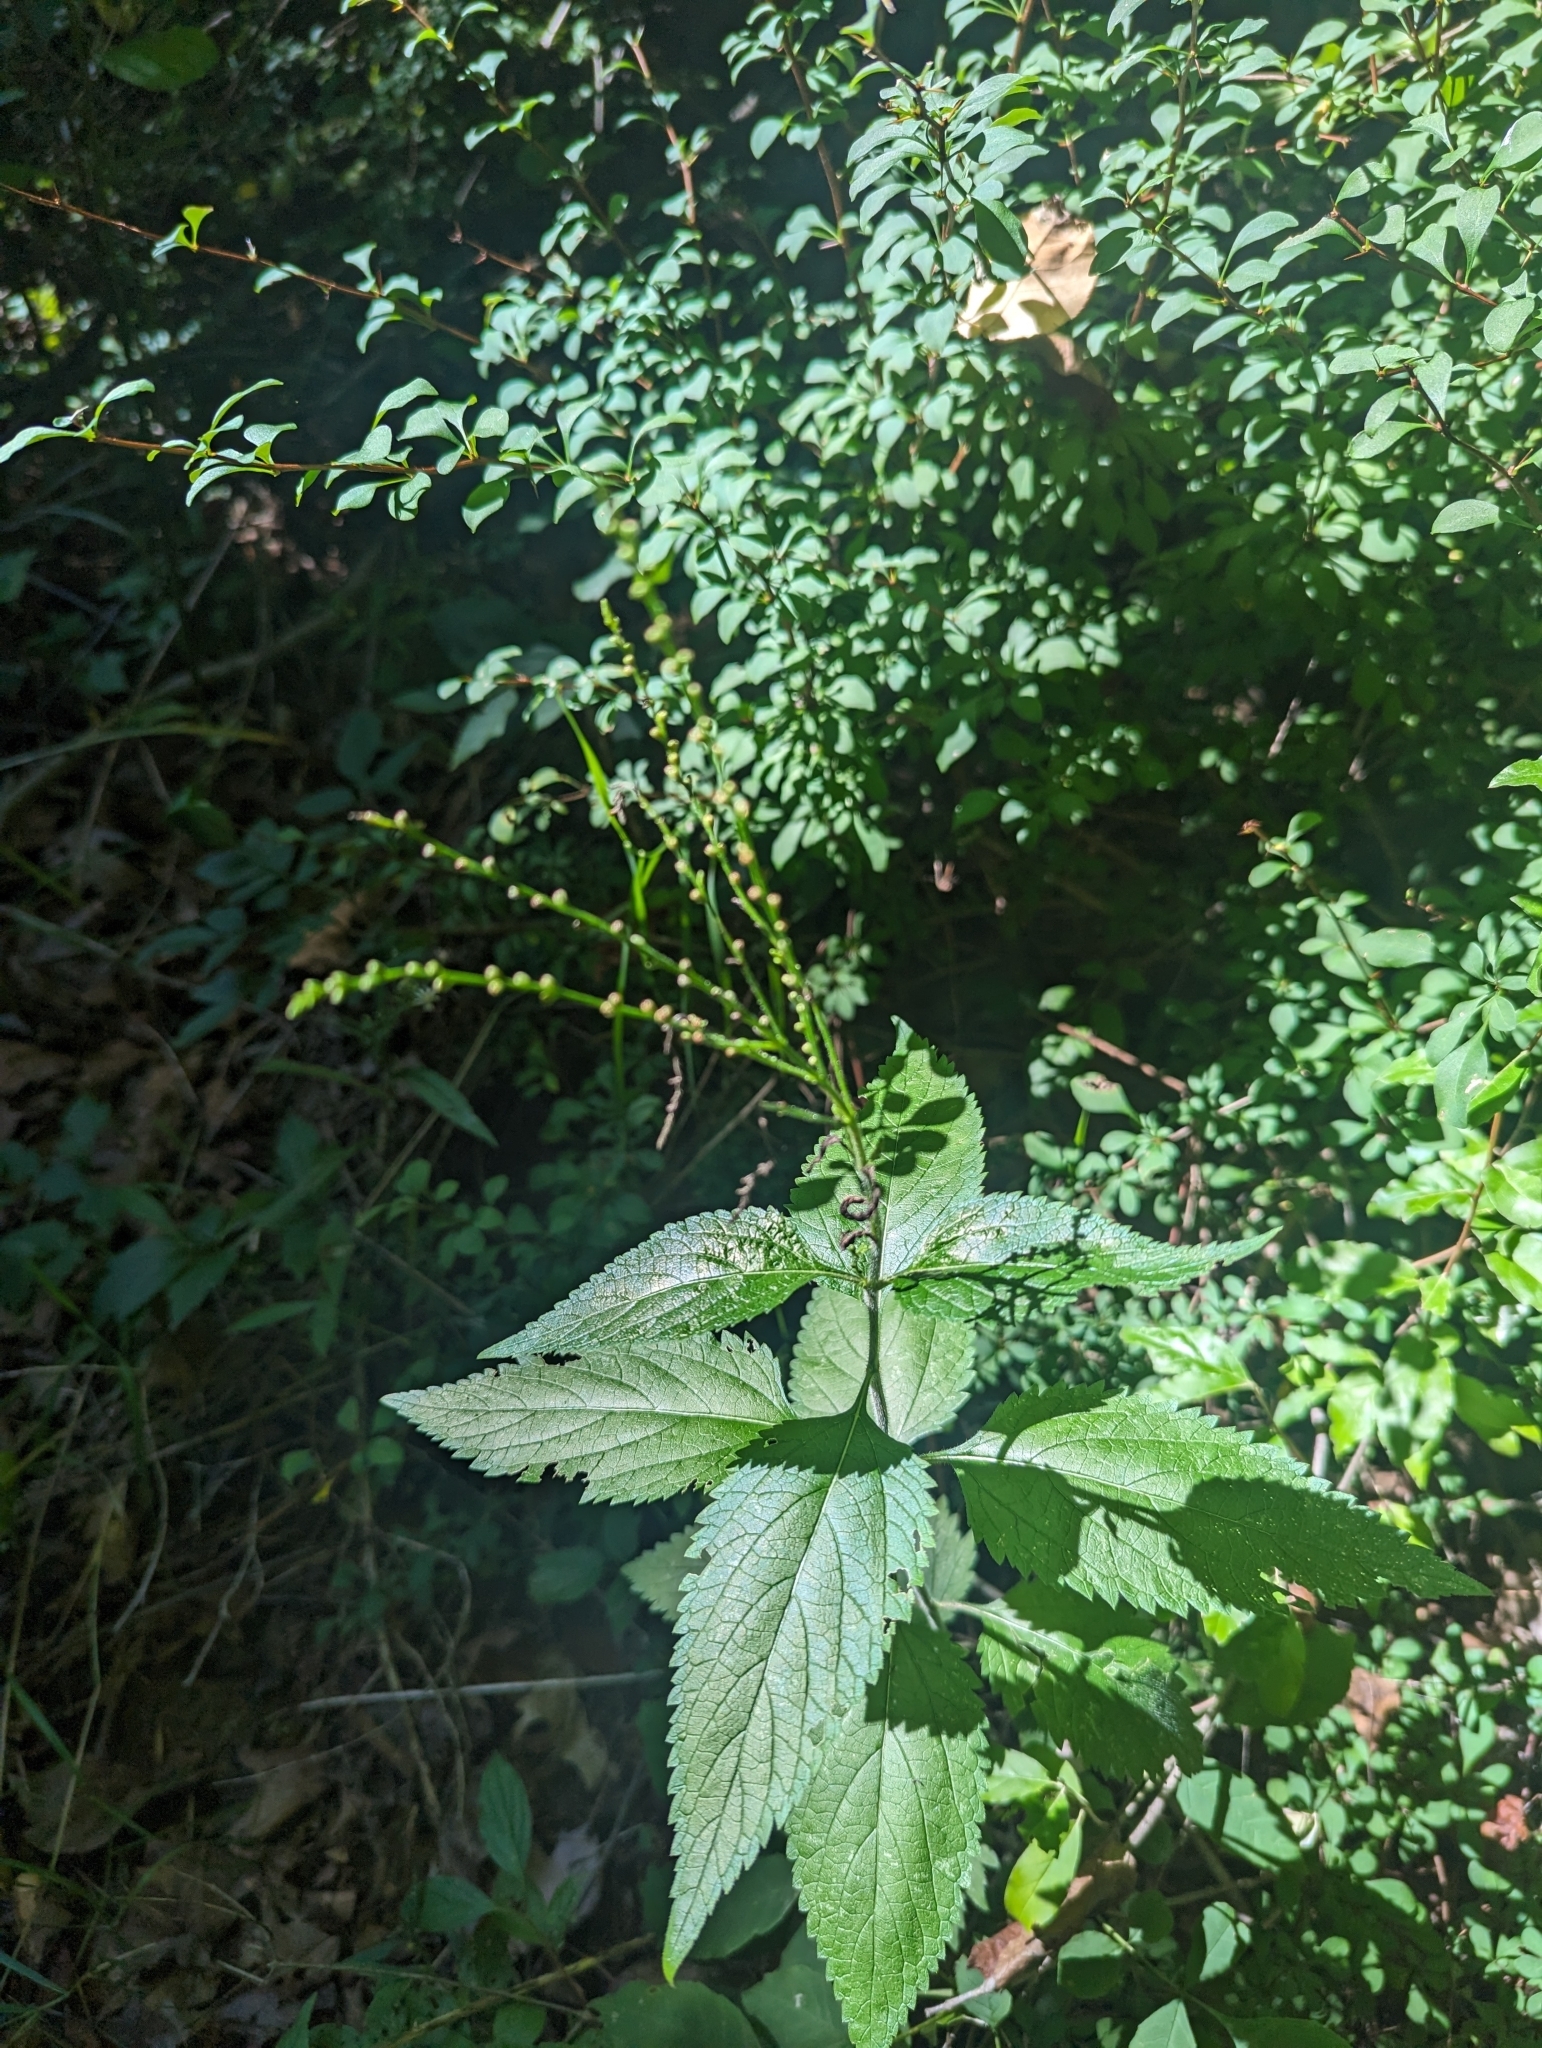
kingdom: Plantae
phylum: Tracheophyta
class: Magnoliopsida
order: Lamiales
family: Verbenaceae
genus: Verbena
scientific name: Verbena urticifolia
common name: Nettle-leaved vervain
